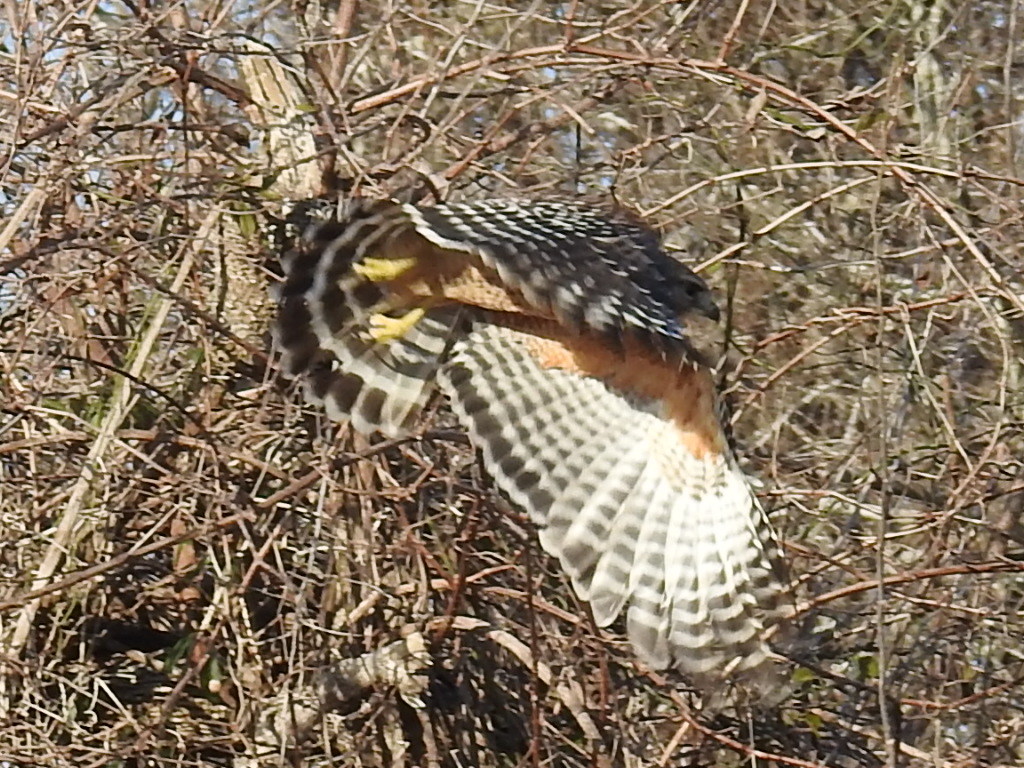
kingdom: Animalia
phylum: Chordata
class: Aves
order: Accipitriformes
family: Accipitridae
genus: Buteo
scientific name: Buteo lineatus
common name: Red-shouldered hawk
